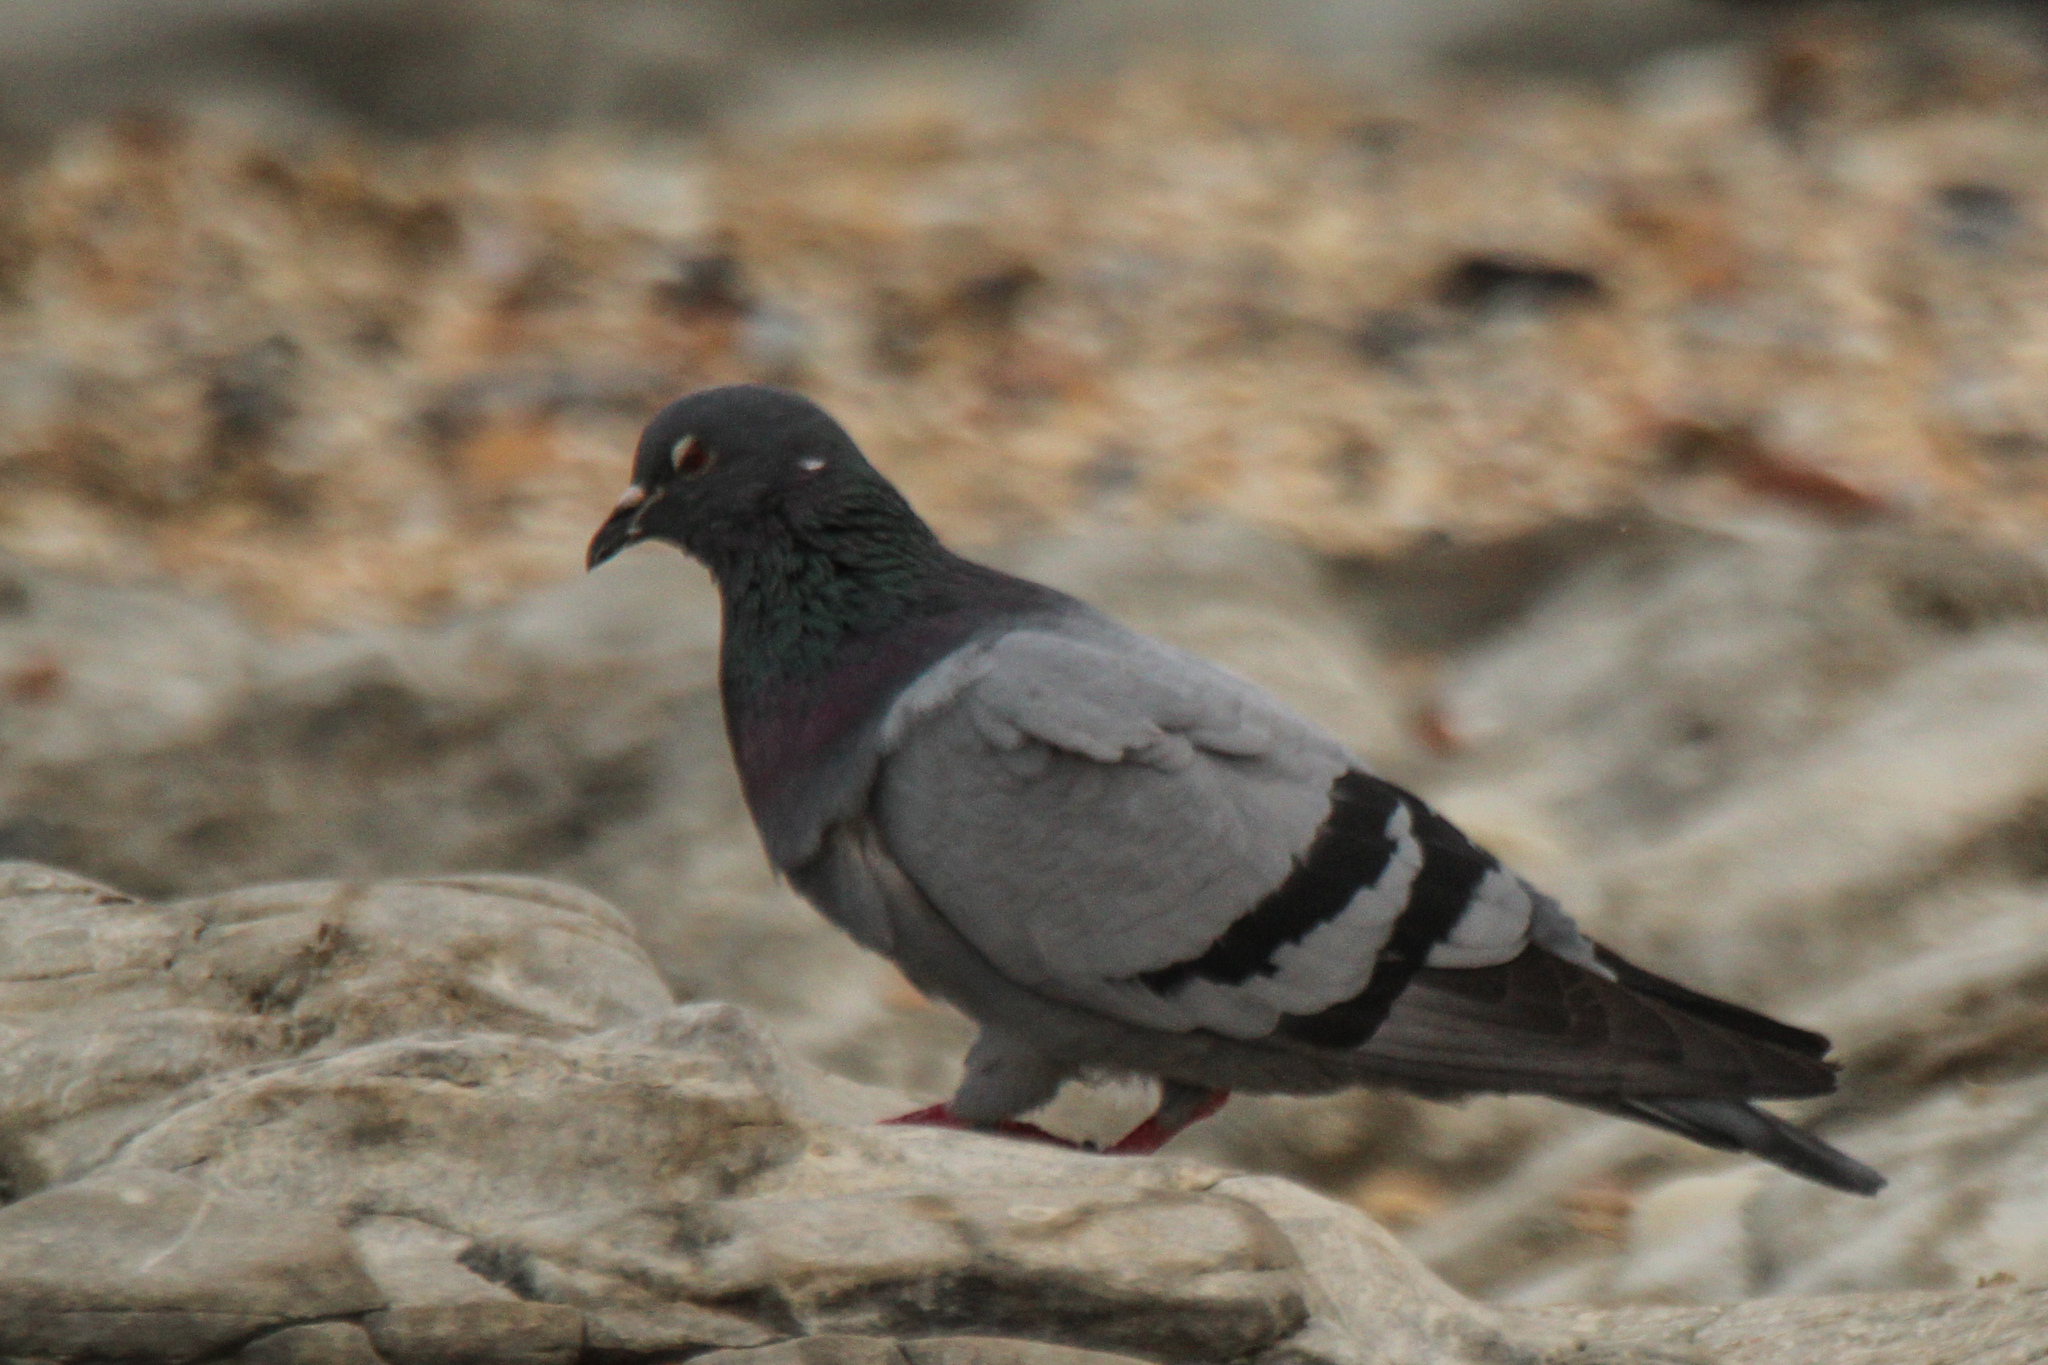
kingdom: Animalia
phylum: Chordata
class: Aves
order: Columbiformes
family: Columbidae
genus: Columba
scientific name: Columba livia
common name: Rock pigeon
